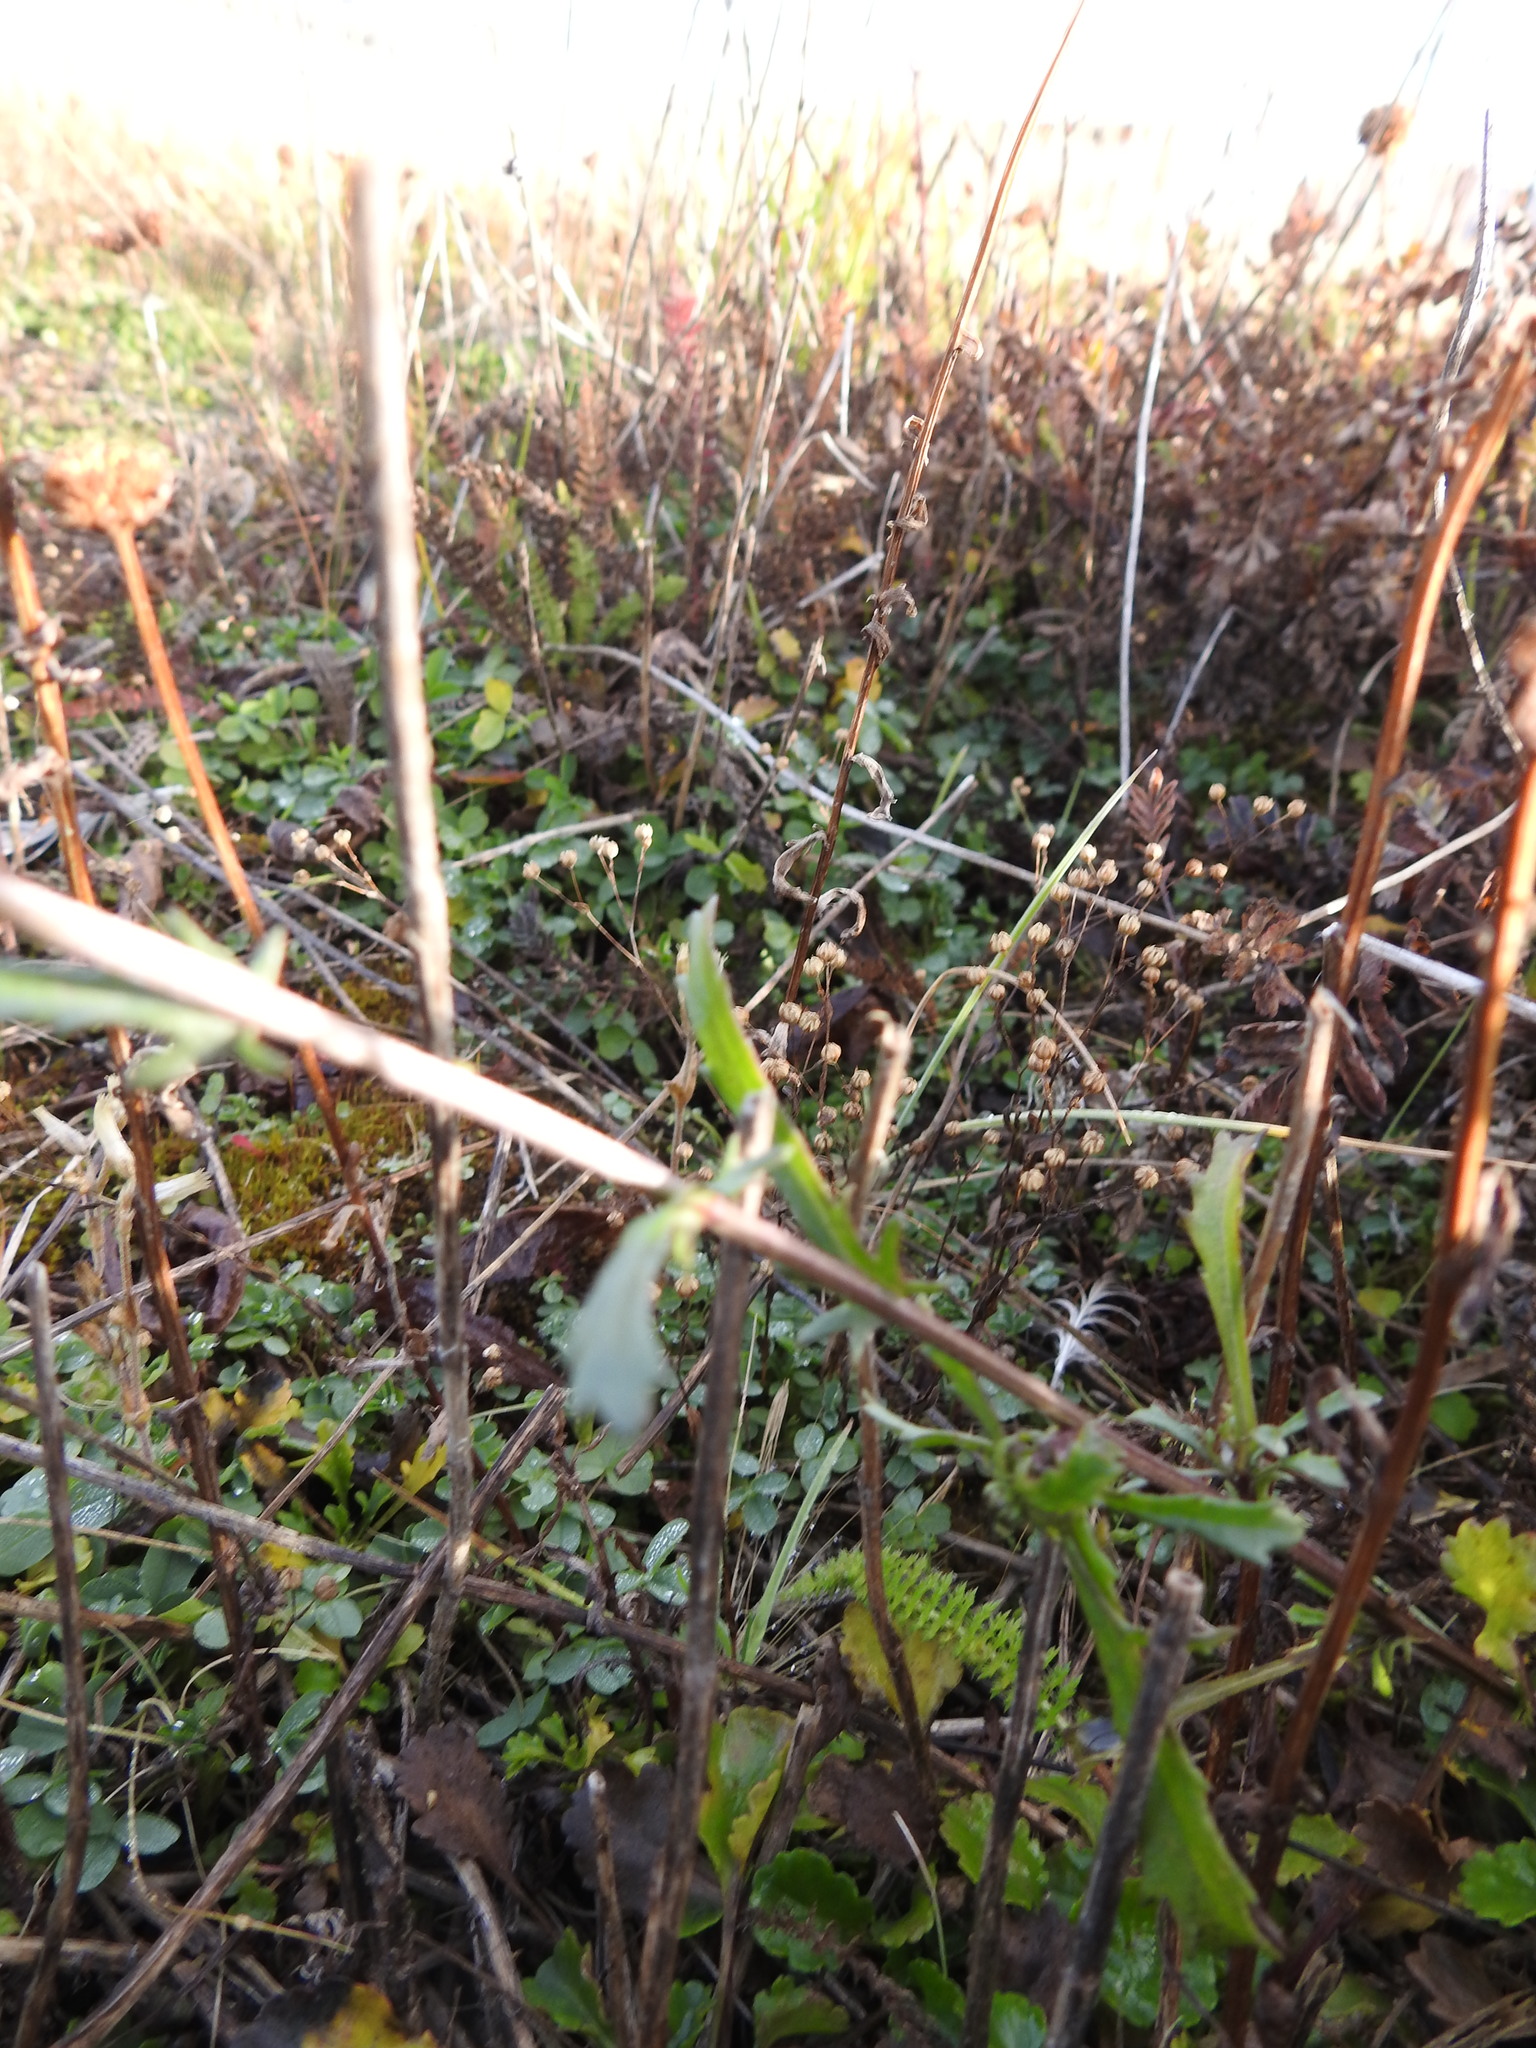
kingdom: Plantae
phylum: Tracheophyta
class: Magnoliopsida
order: Asterales
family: Asteraceae
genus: Leucanthemum
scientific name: Leucanthemum vulgare
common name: Oxeye daisy
